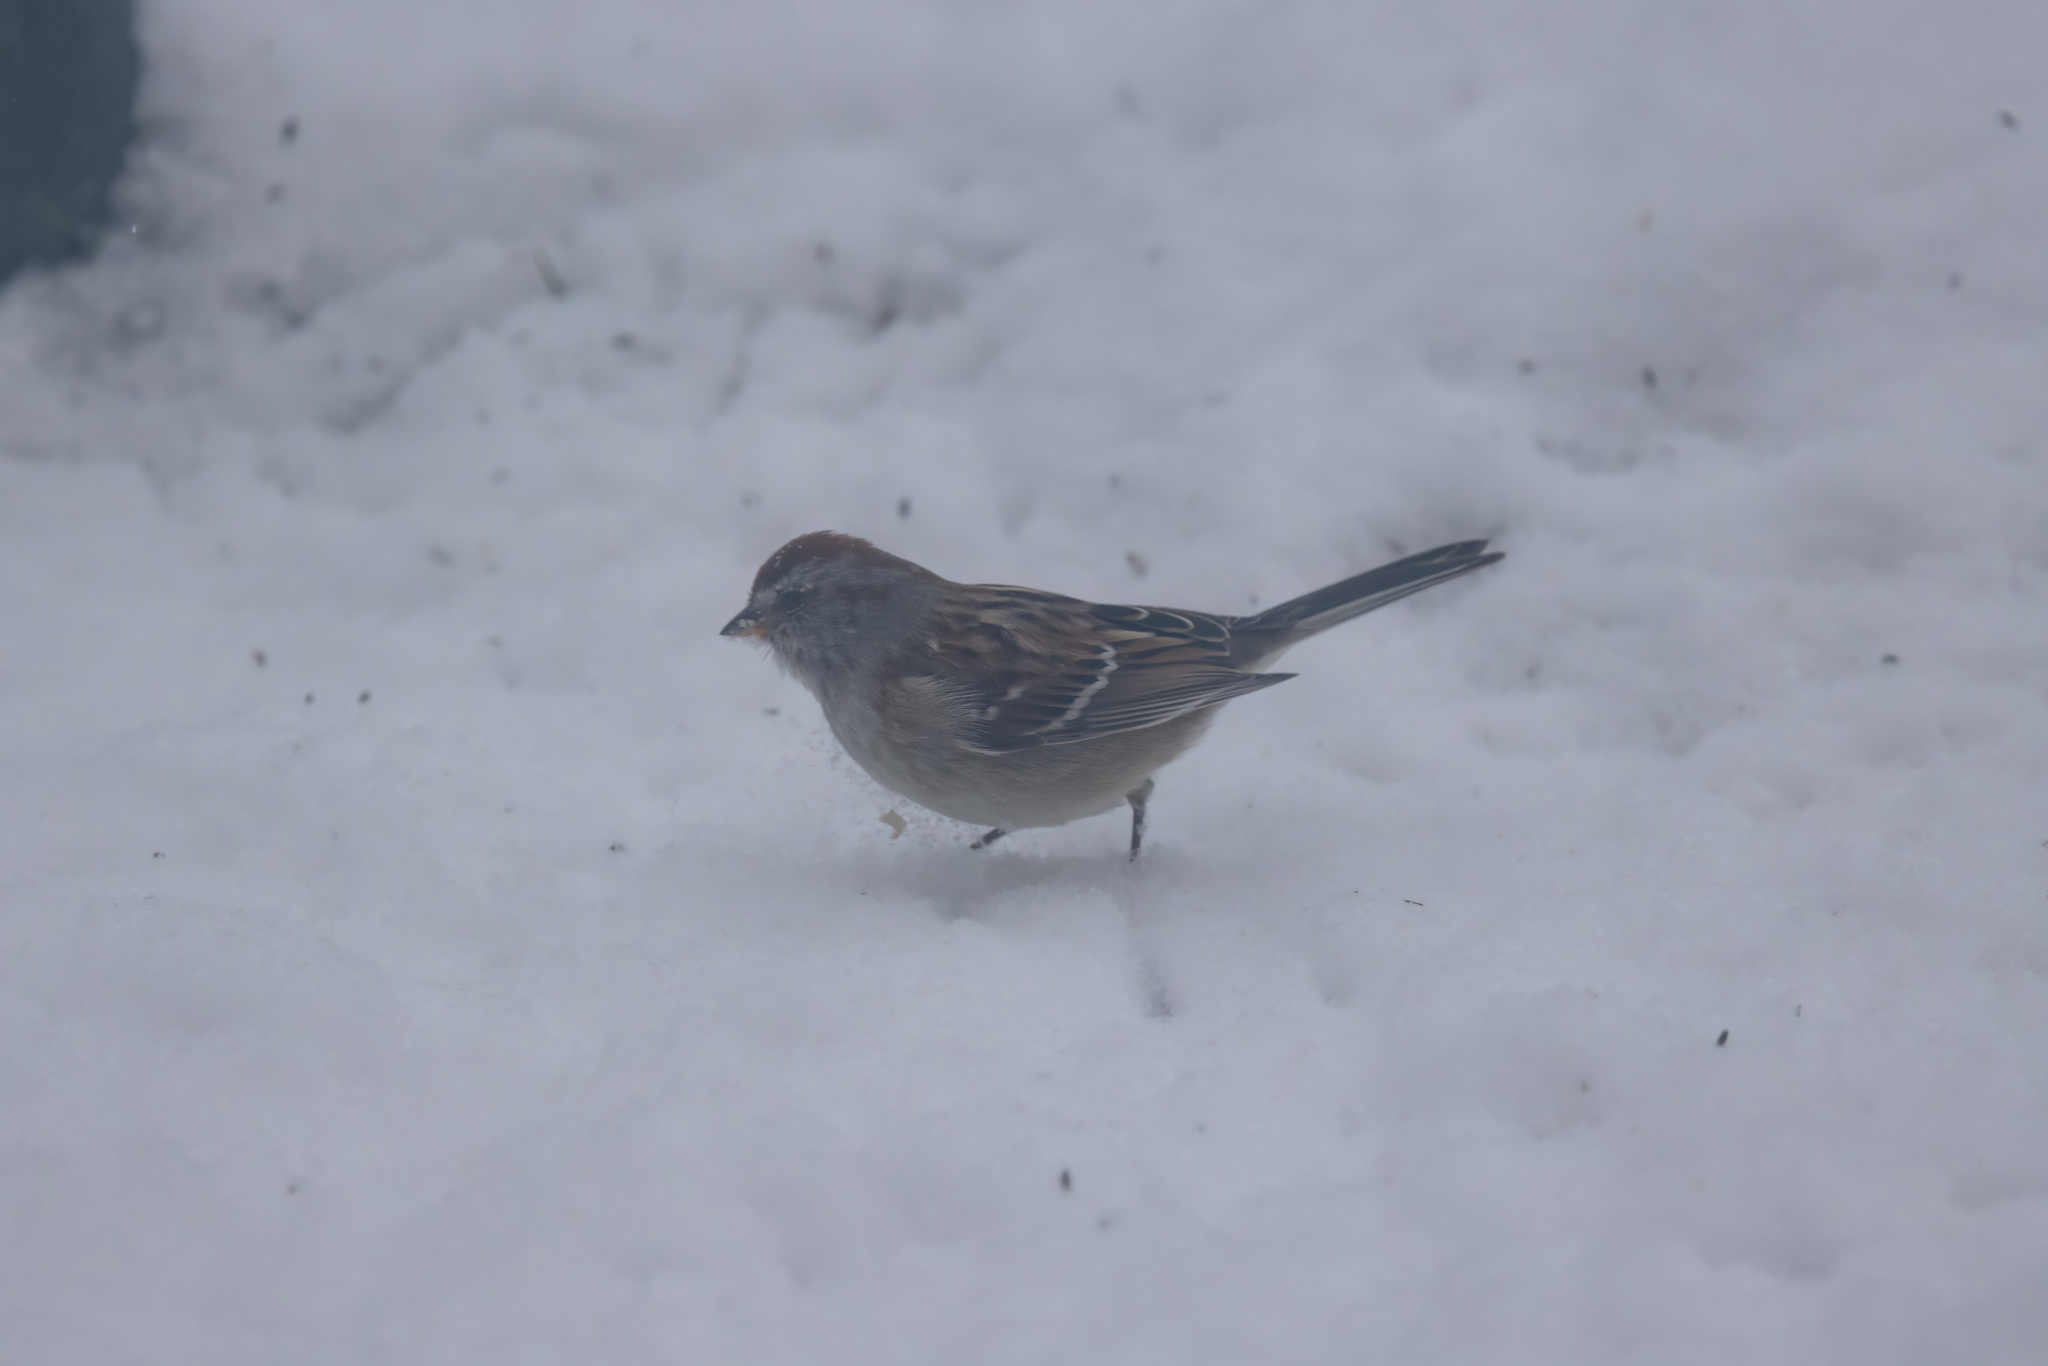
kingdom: Animalia
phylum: Chordata
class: Aves
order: Passeriformes
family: Passerellidae
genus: Spizelloides
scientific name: Spizelloides arborea
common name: American tree sparrow
